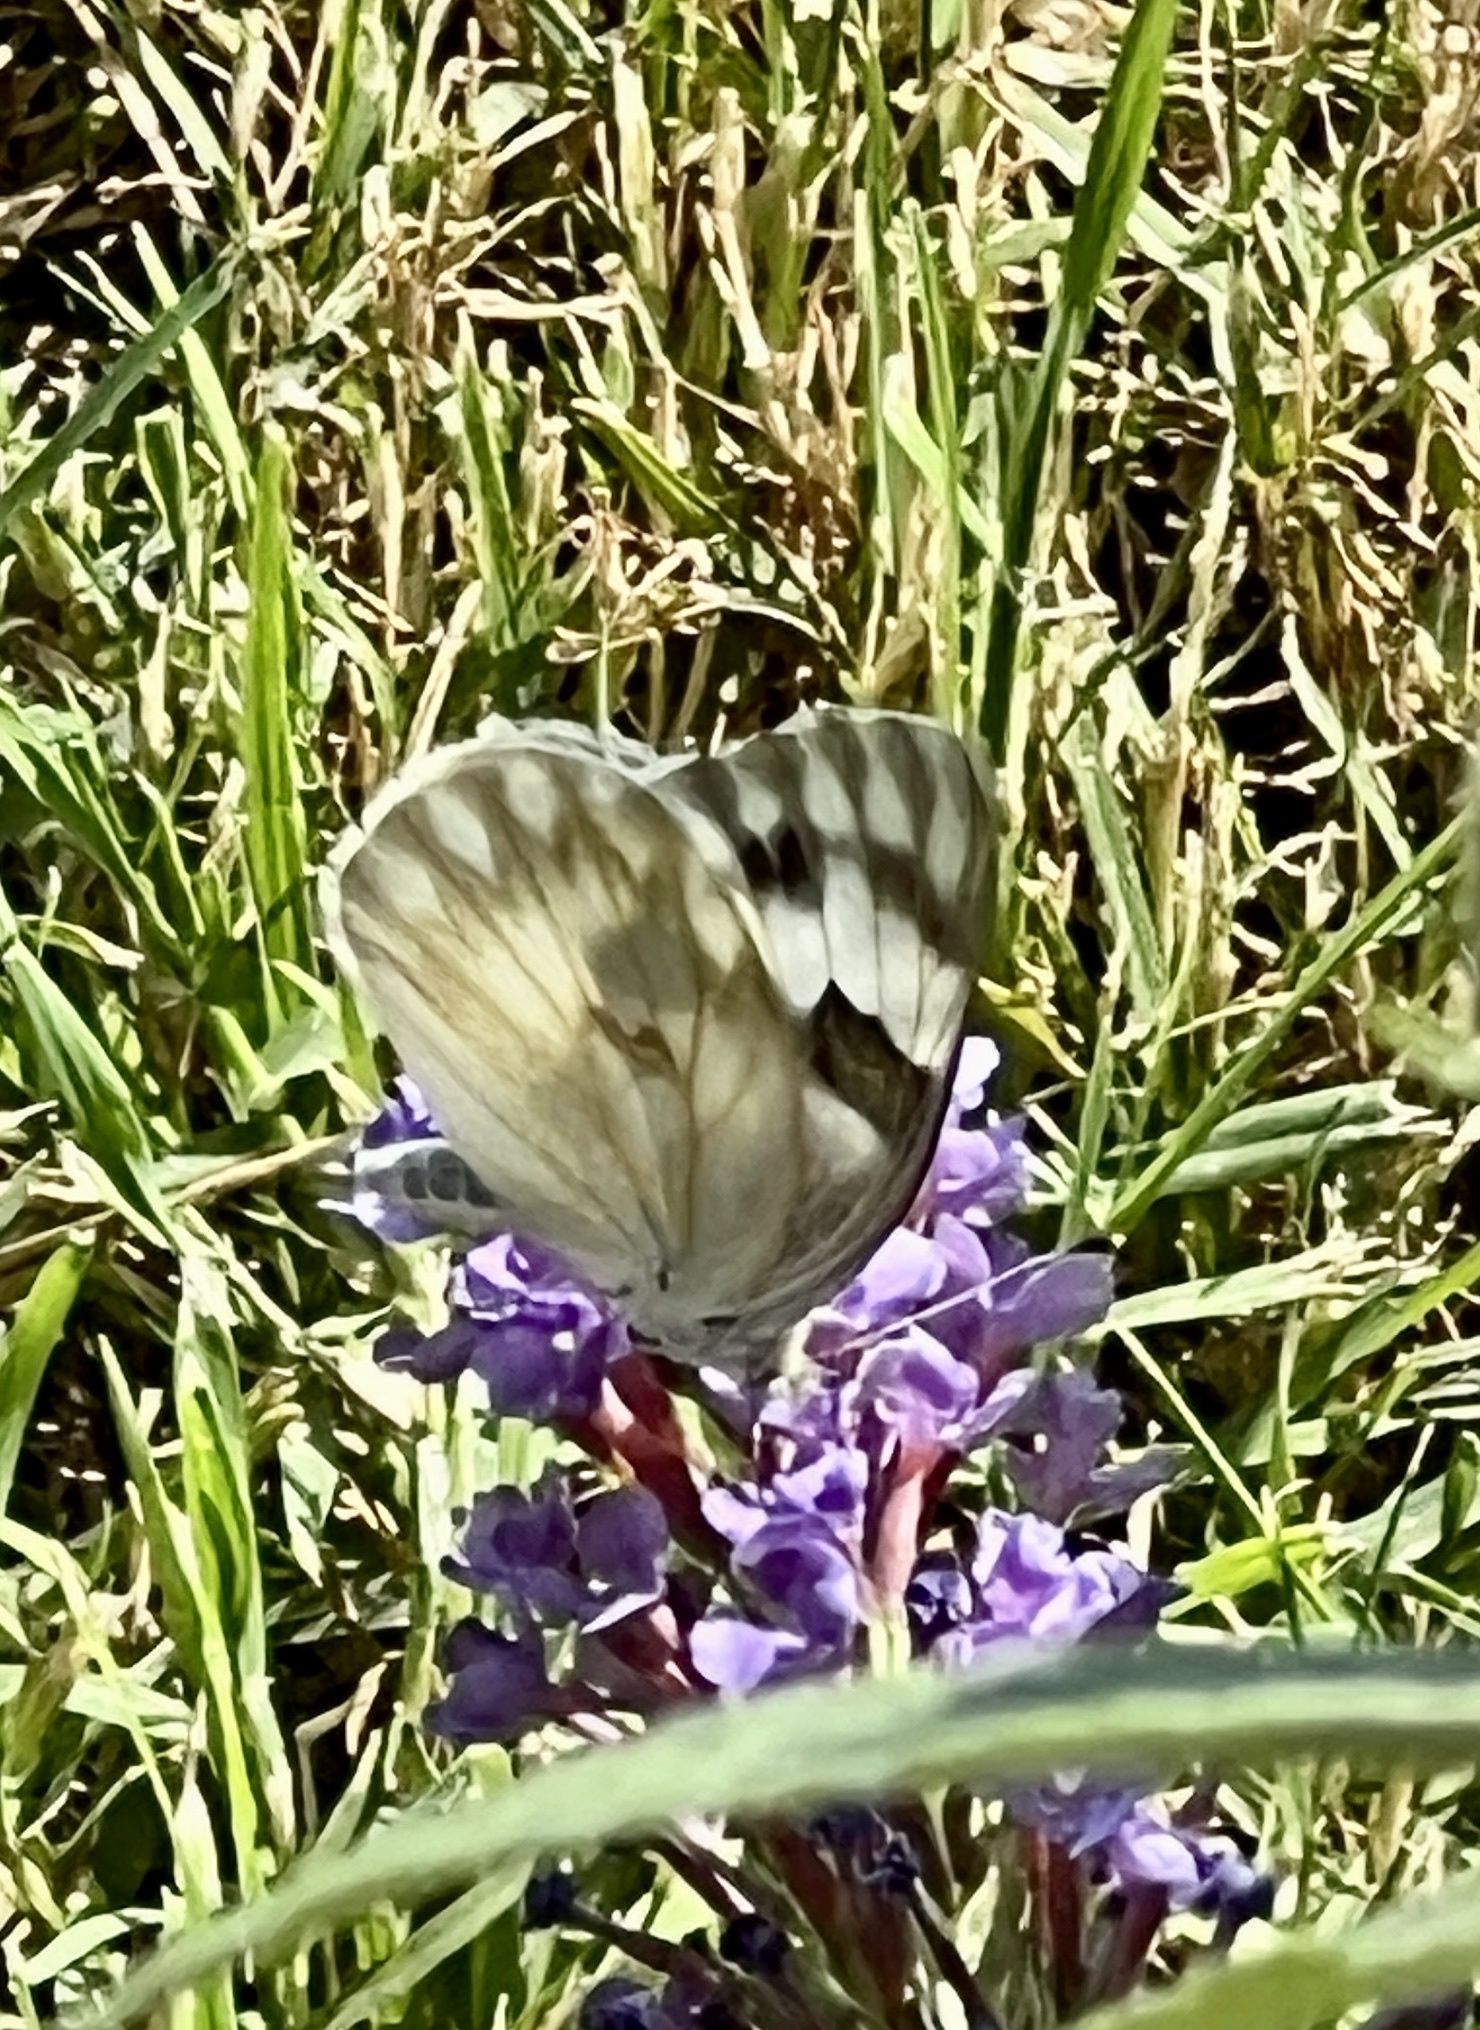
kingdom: Animalia
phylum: Arthropoda
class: Insecta
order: Lepidoptera
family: Pieridae
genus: Pontia
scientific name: Pontia protodice
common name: Checkered white
